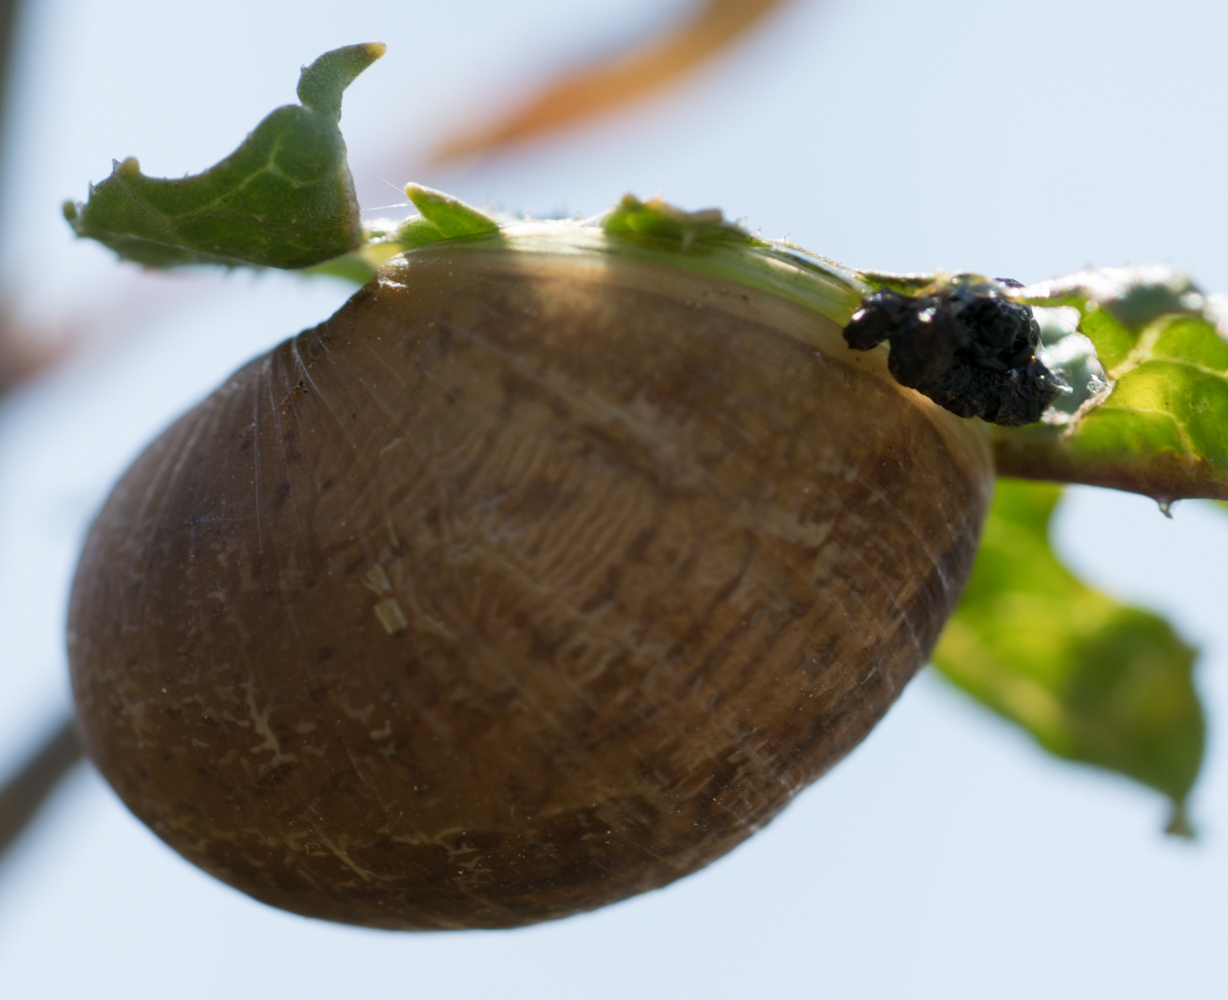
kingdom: Animalia
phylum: Mollusca
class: Gastropoda
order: Stylommatophora
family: Helicidae
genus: Cornu
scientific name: Cornu aspersum
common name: Brown garden snail
